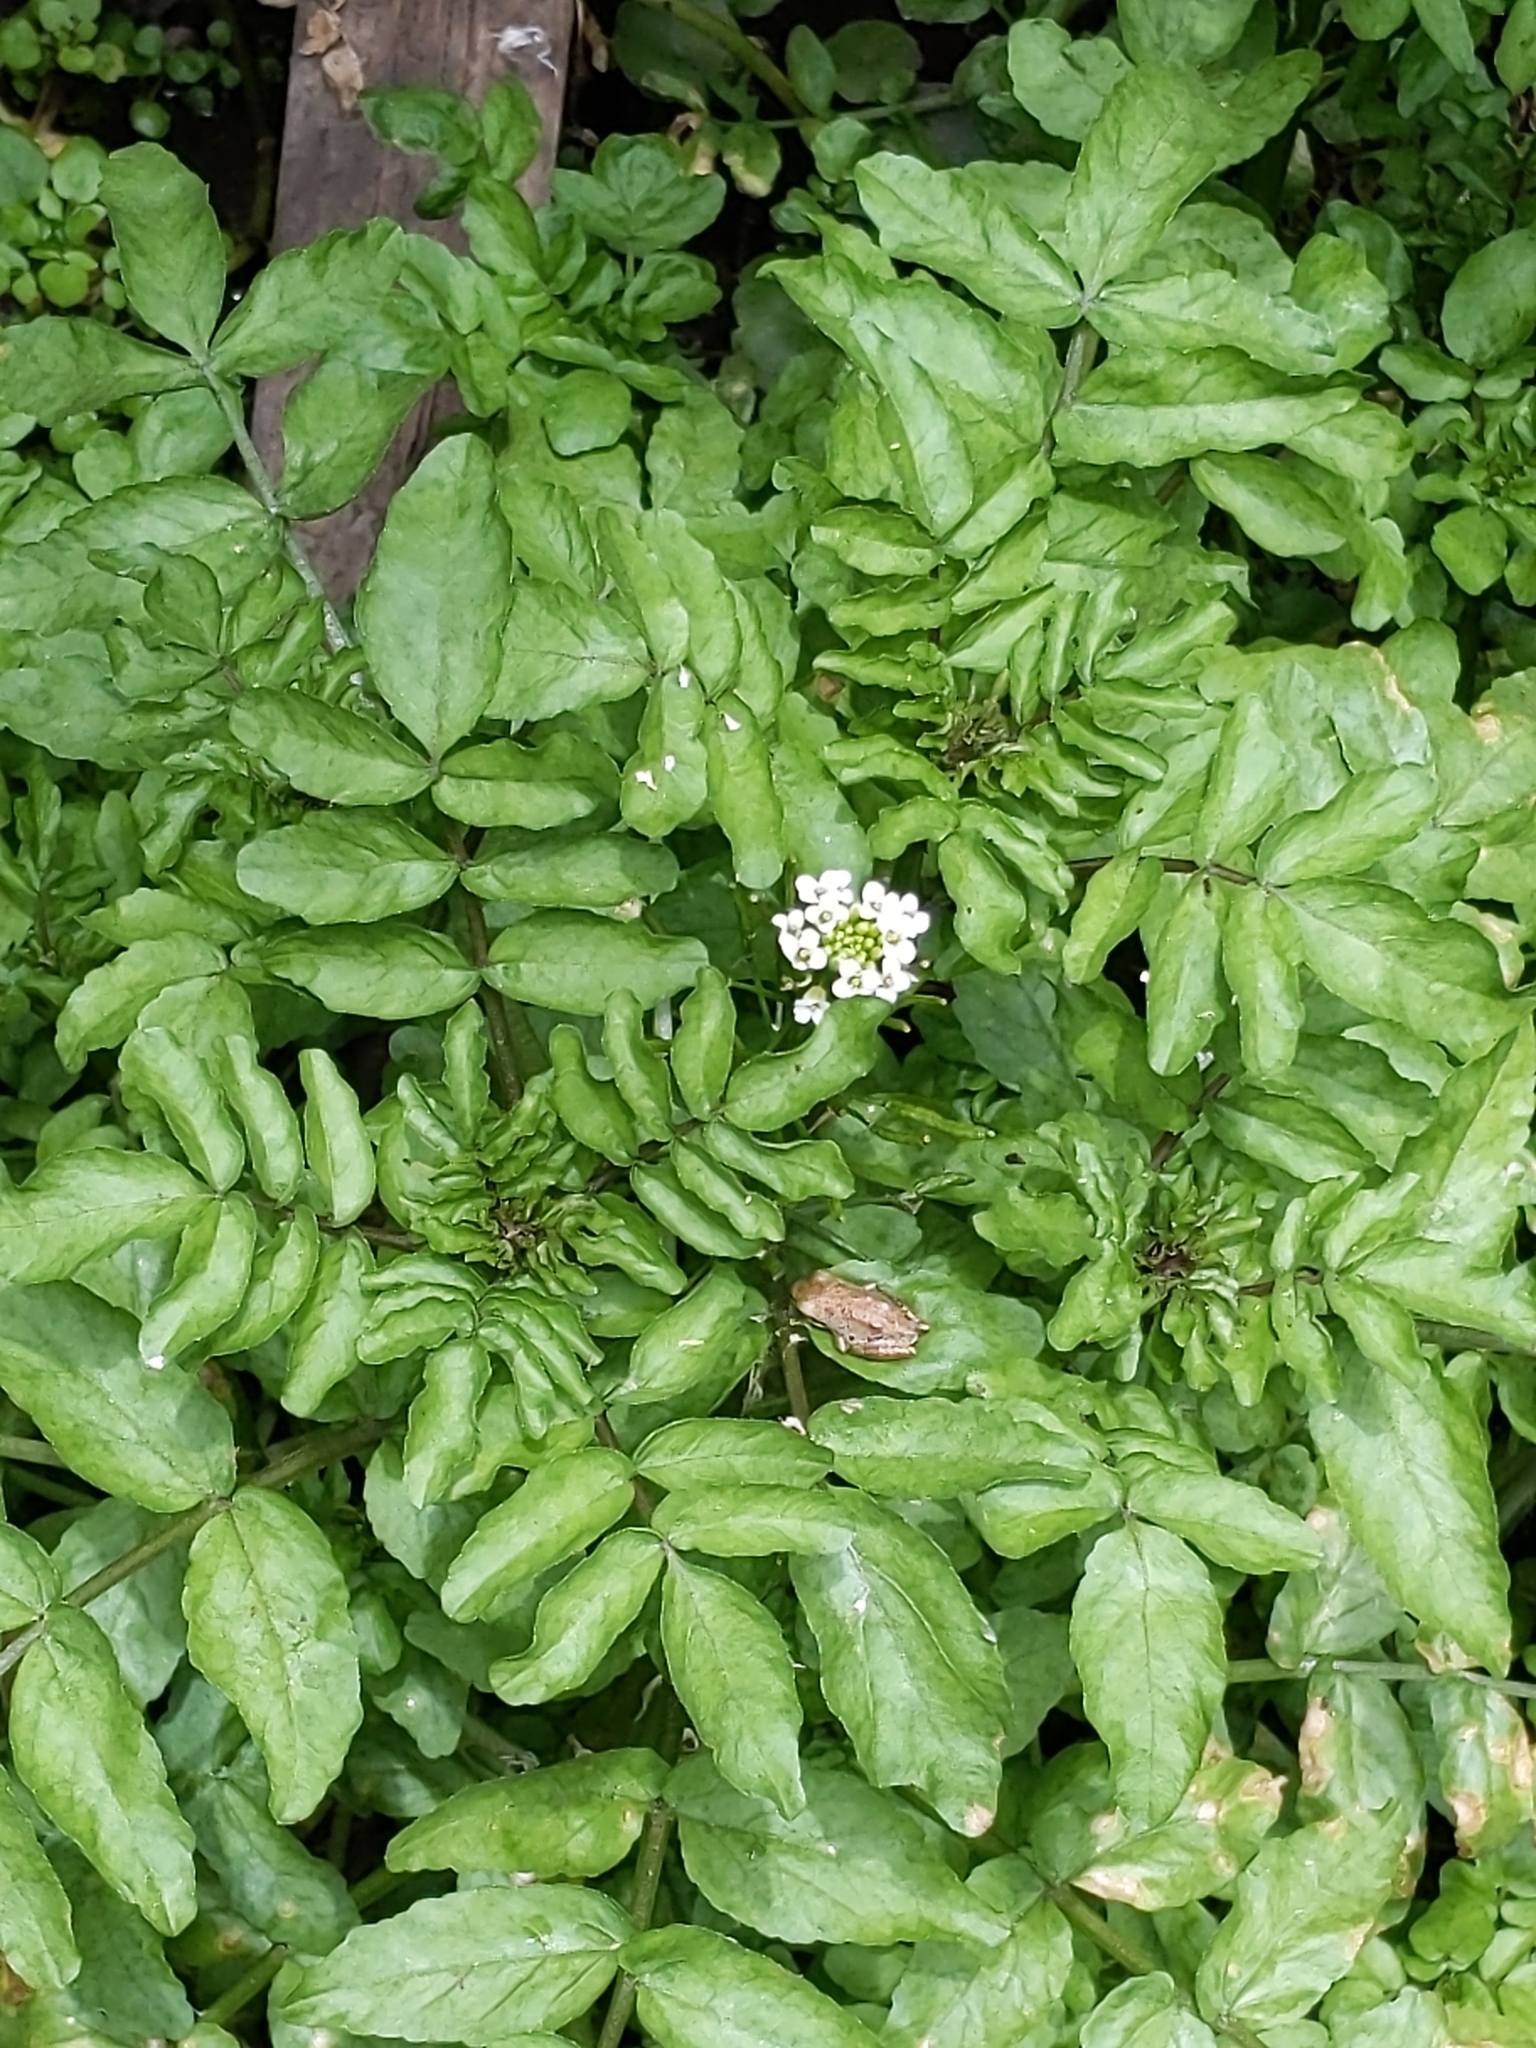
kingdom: Plantae
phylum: Tracheophyta
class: Magnoliopsida
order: Brassicales
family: Brassicaceae
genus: Nasturtium
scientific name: Nasturtium officinale
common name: Watercress
